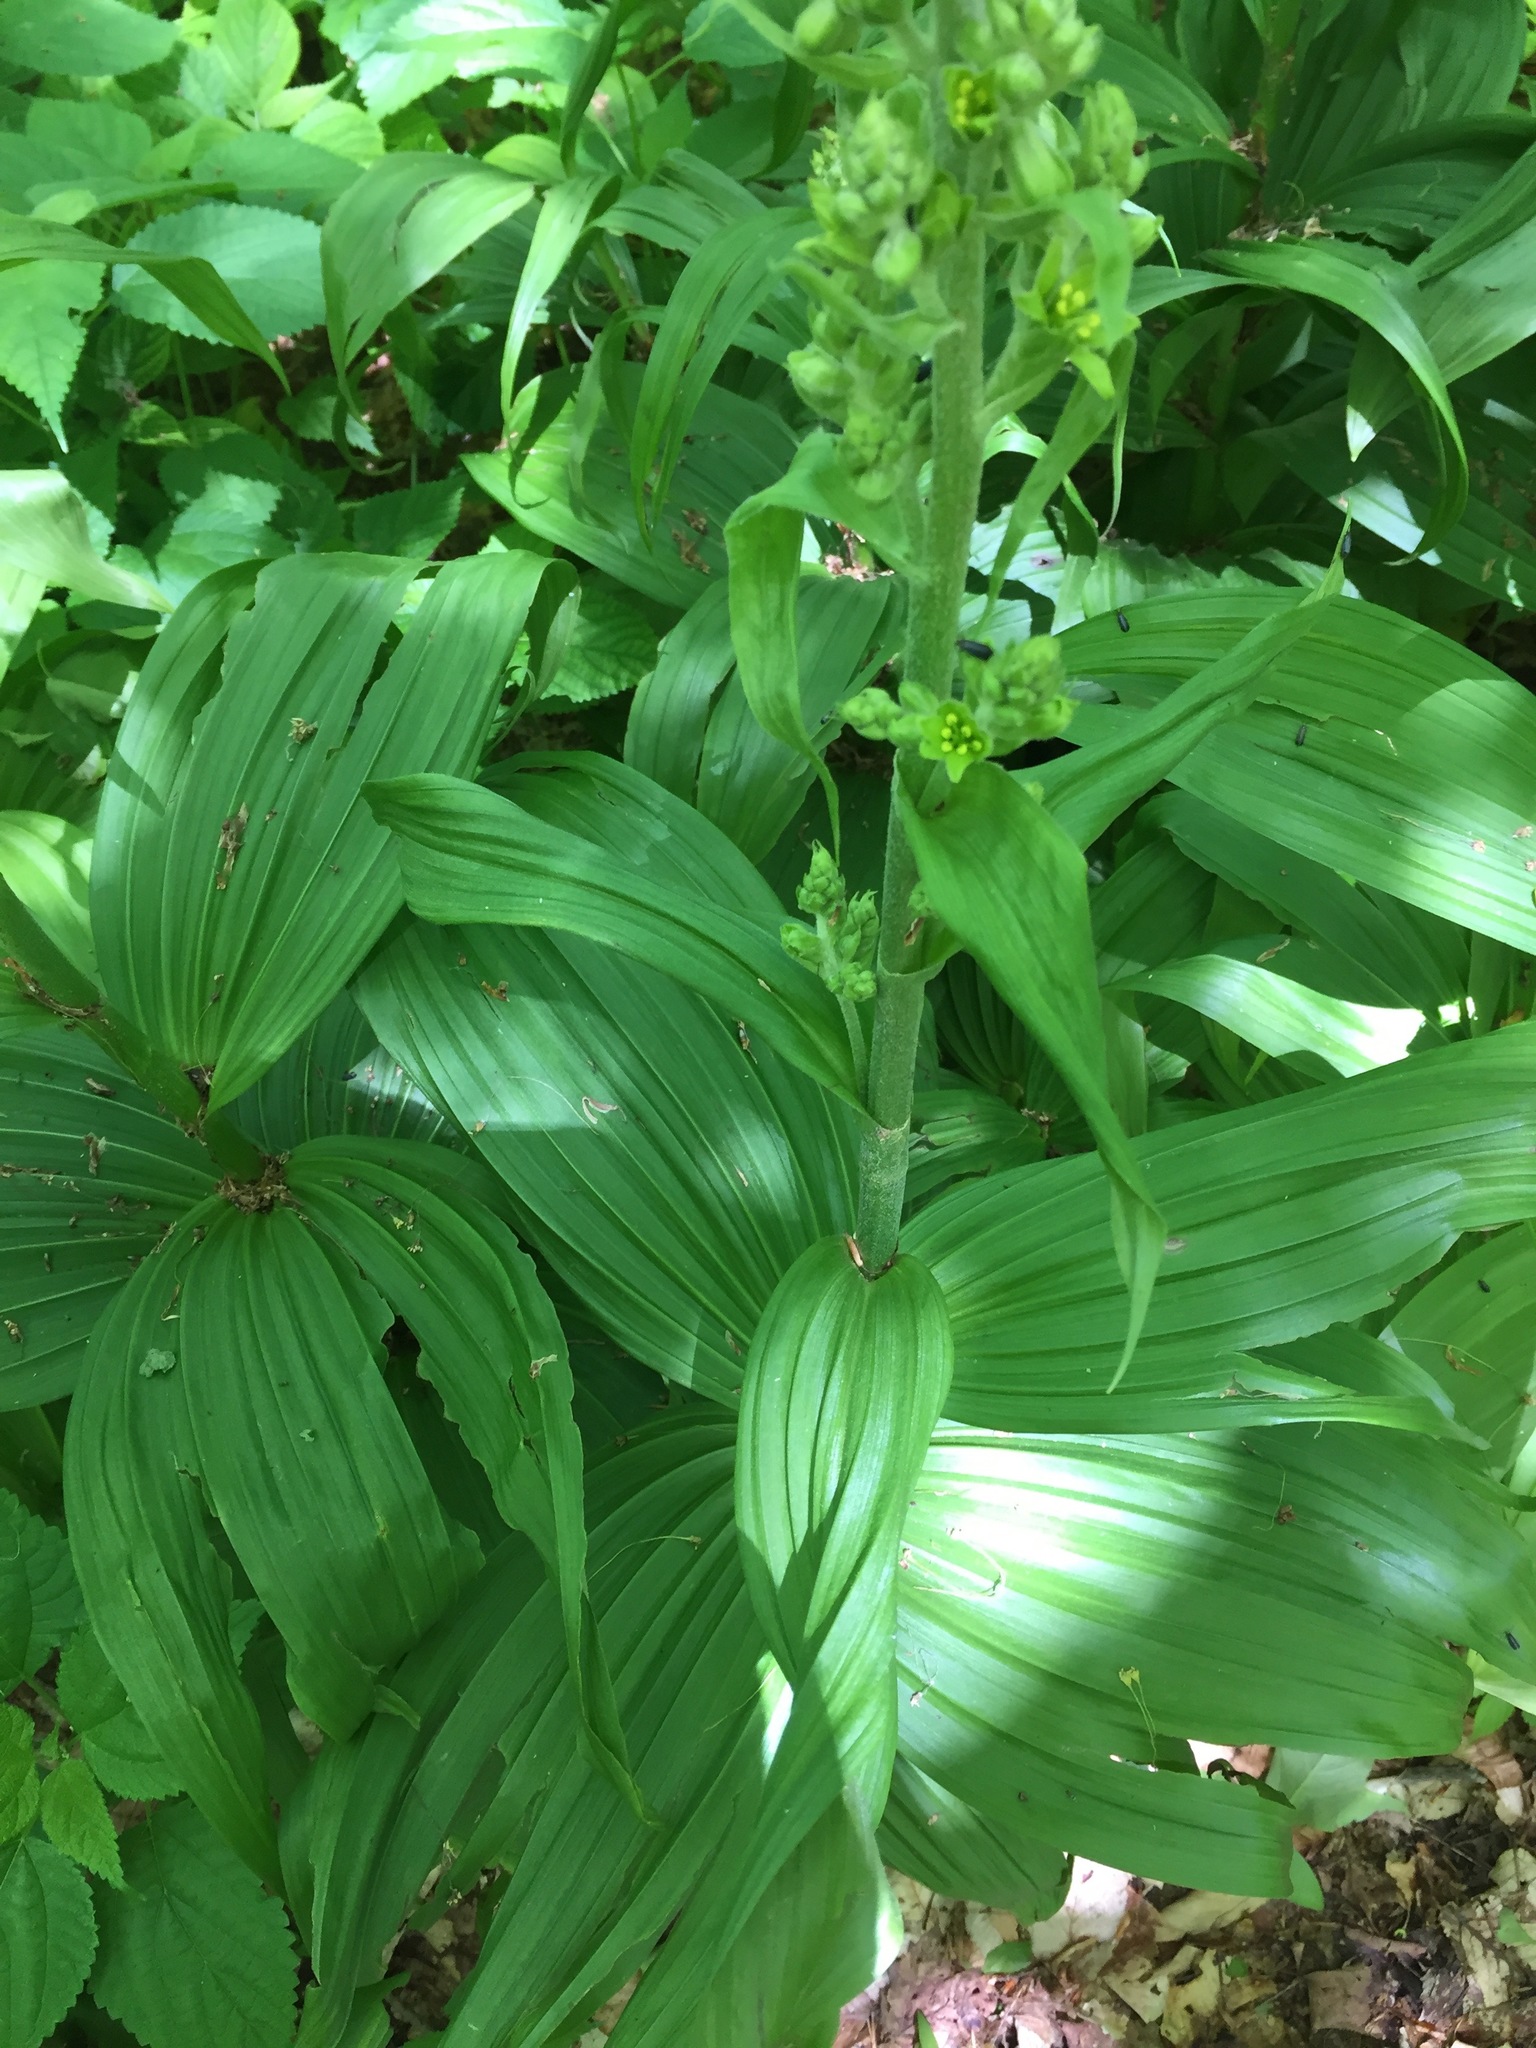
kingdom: Plantae
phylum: Tracheophyta
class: Liliopsida
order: Liliales
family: Melanthiaceae
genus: Veratrum
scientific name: Veratrum viride
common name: American false hellebore
